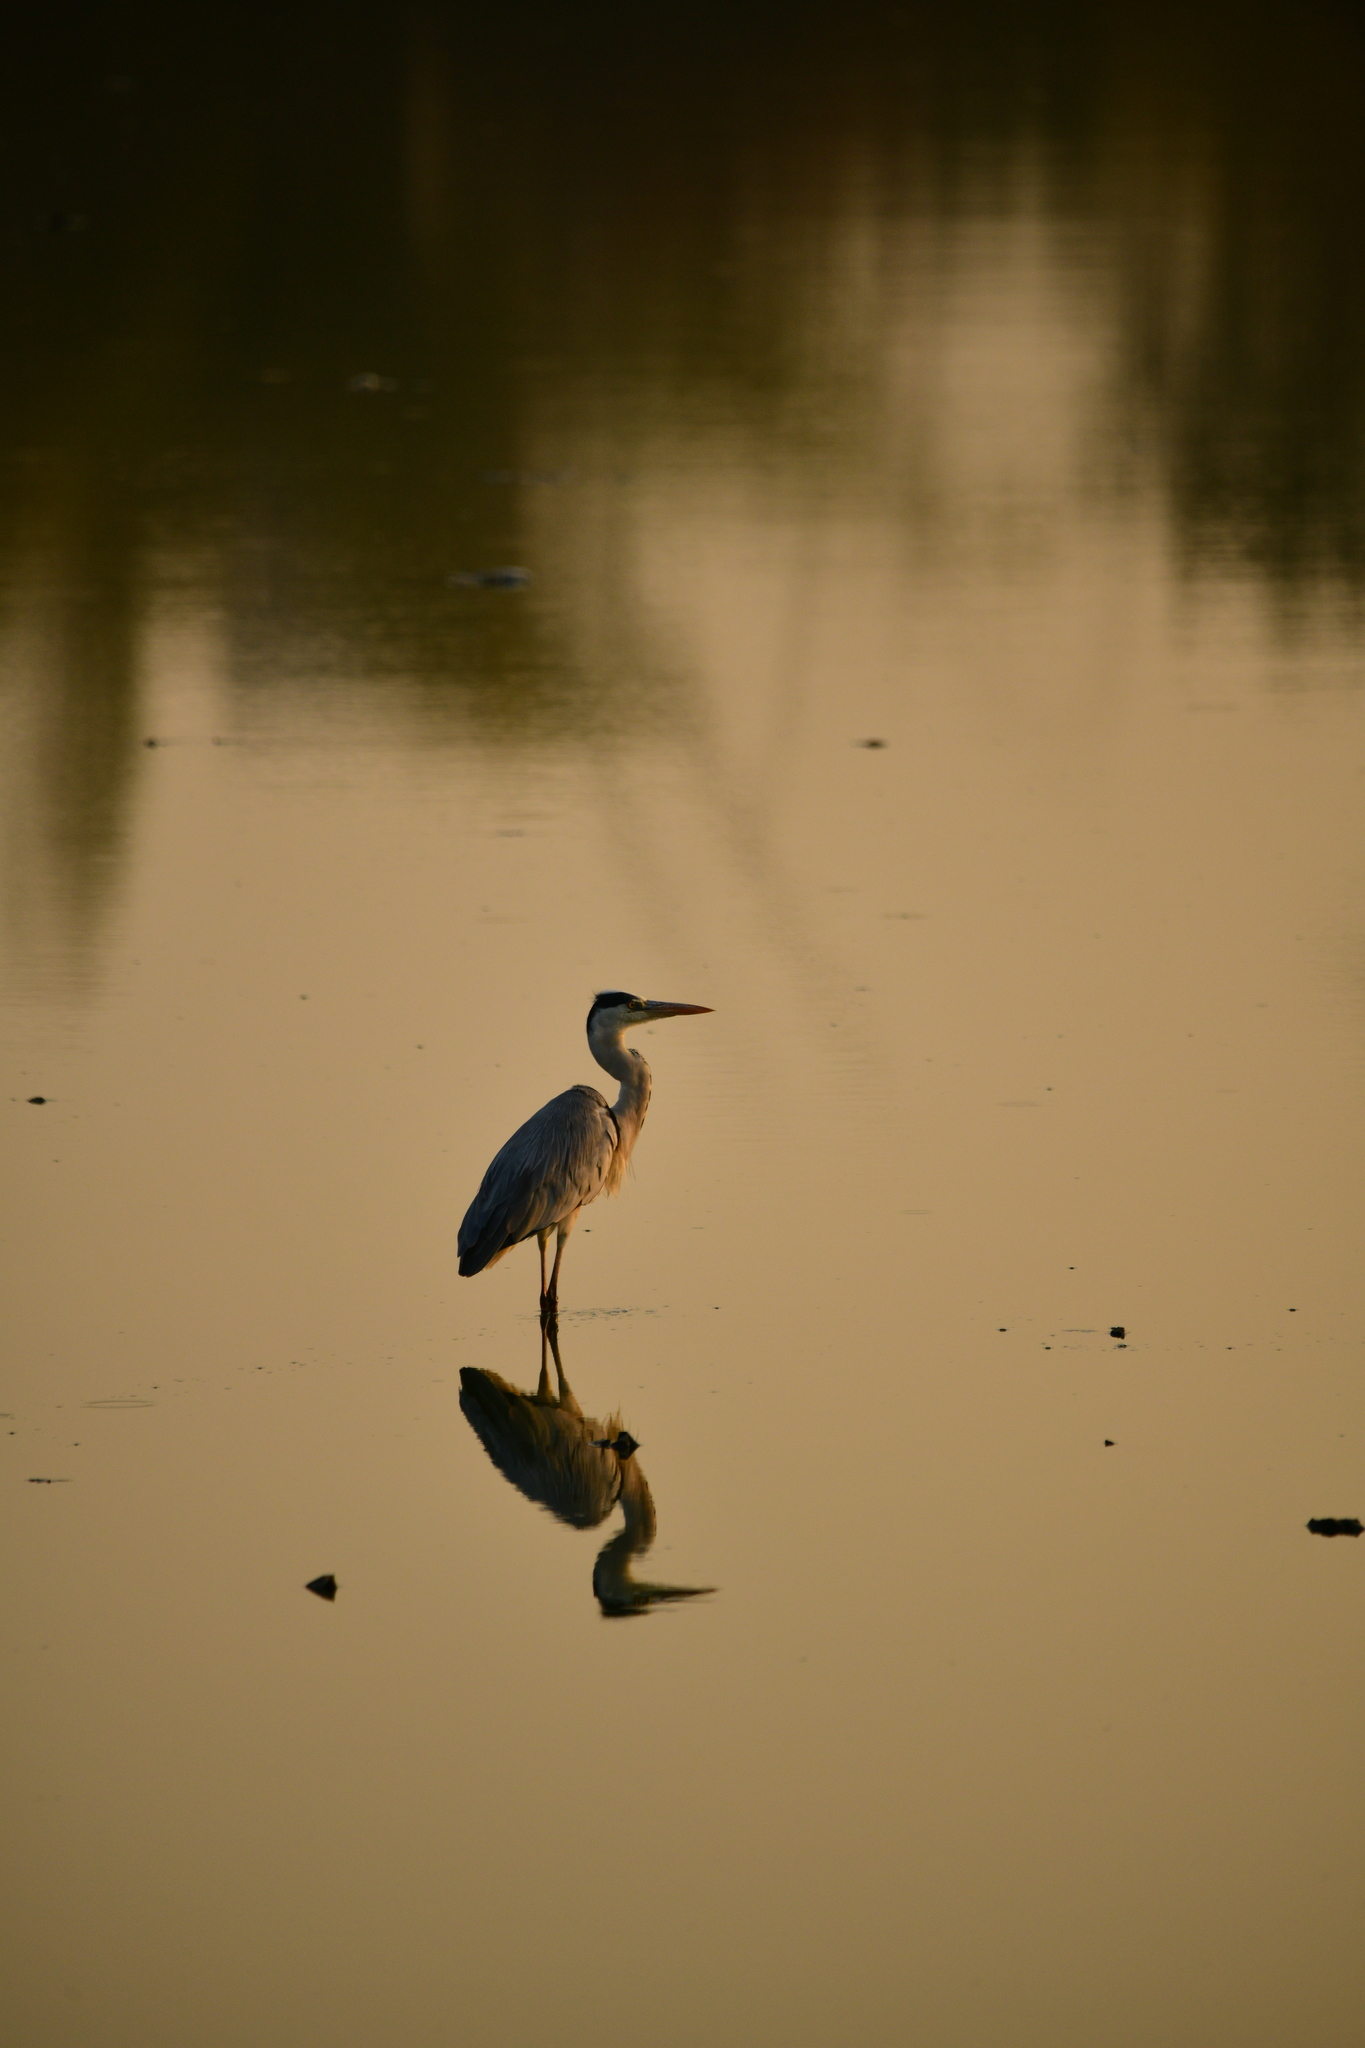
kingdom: Animalia
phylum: Chordata
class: Aves
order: Pelecaniformes
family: Ardeidae
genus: Ardea
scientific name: Ardea cinerea
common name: Grey heron
